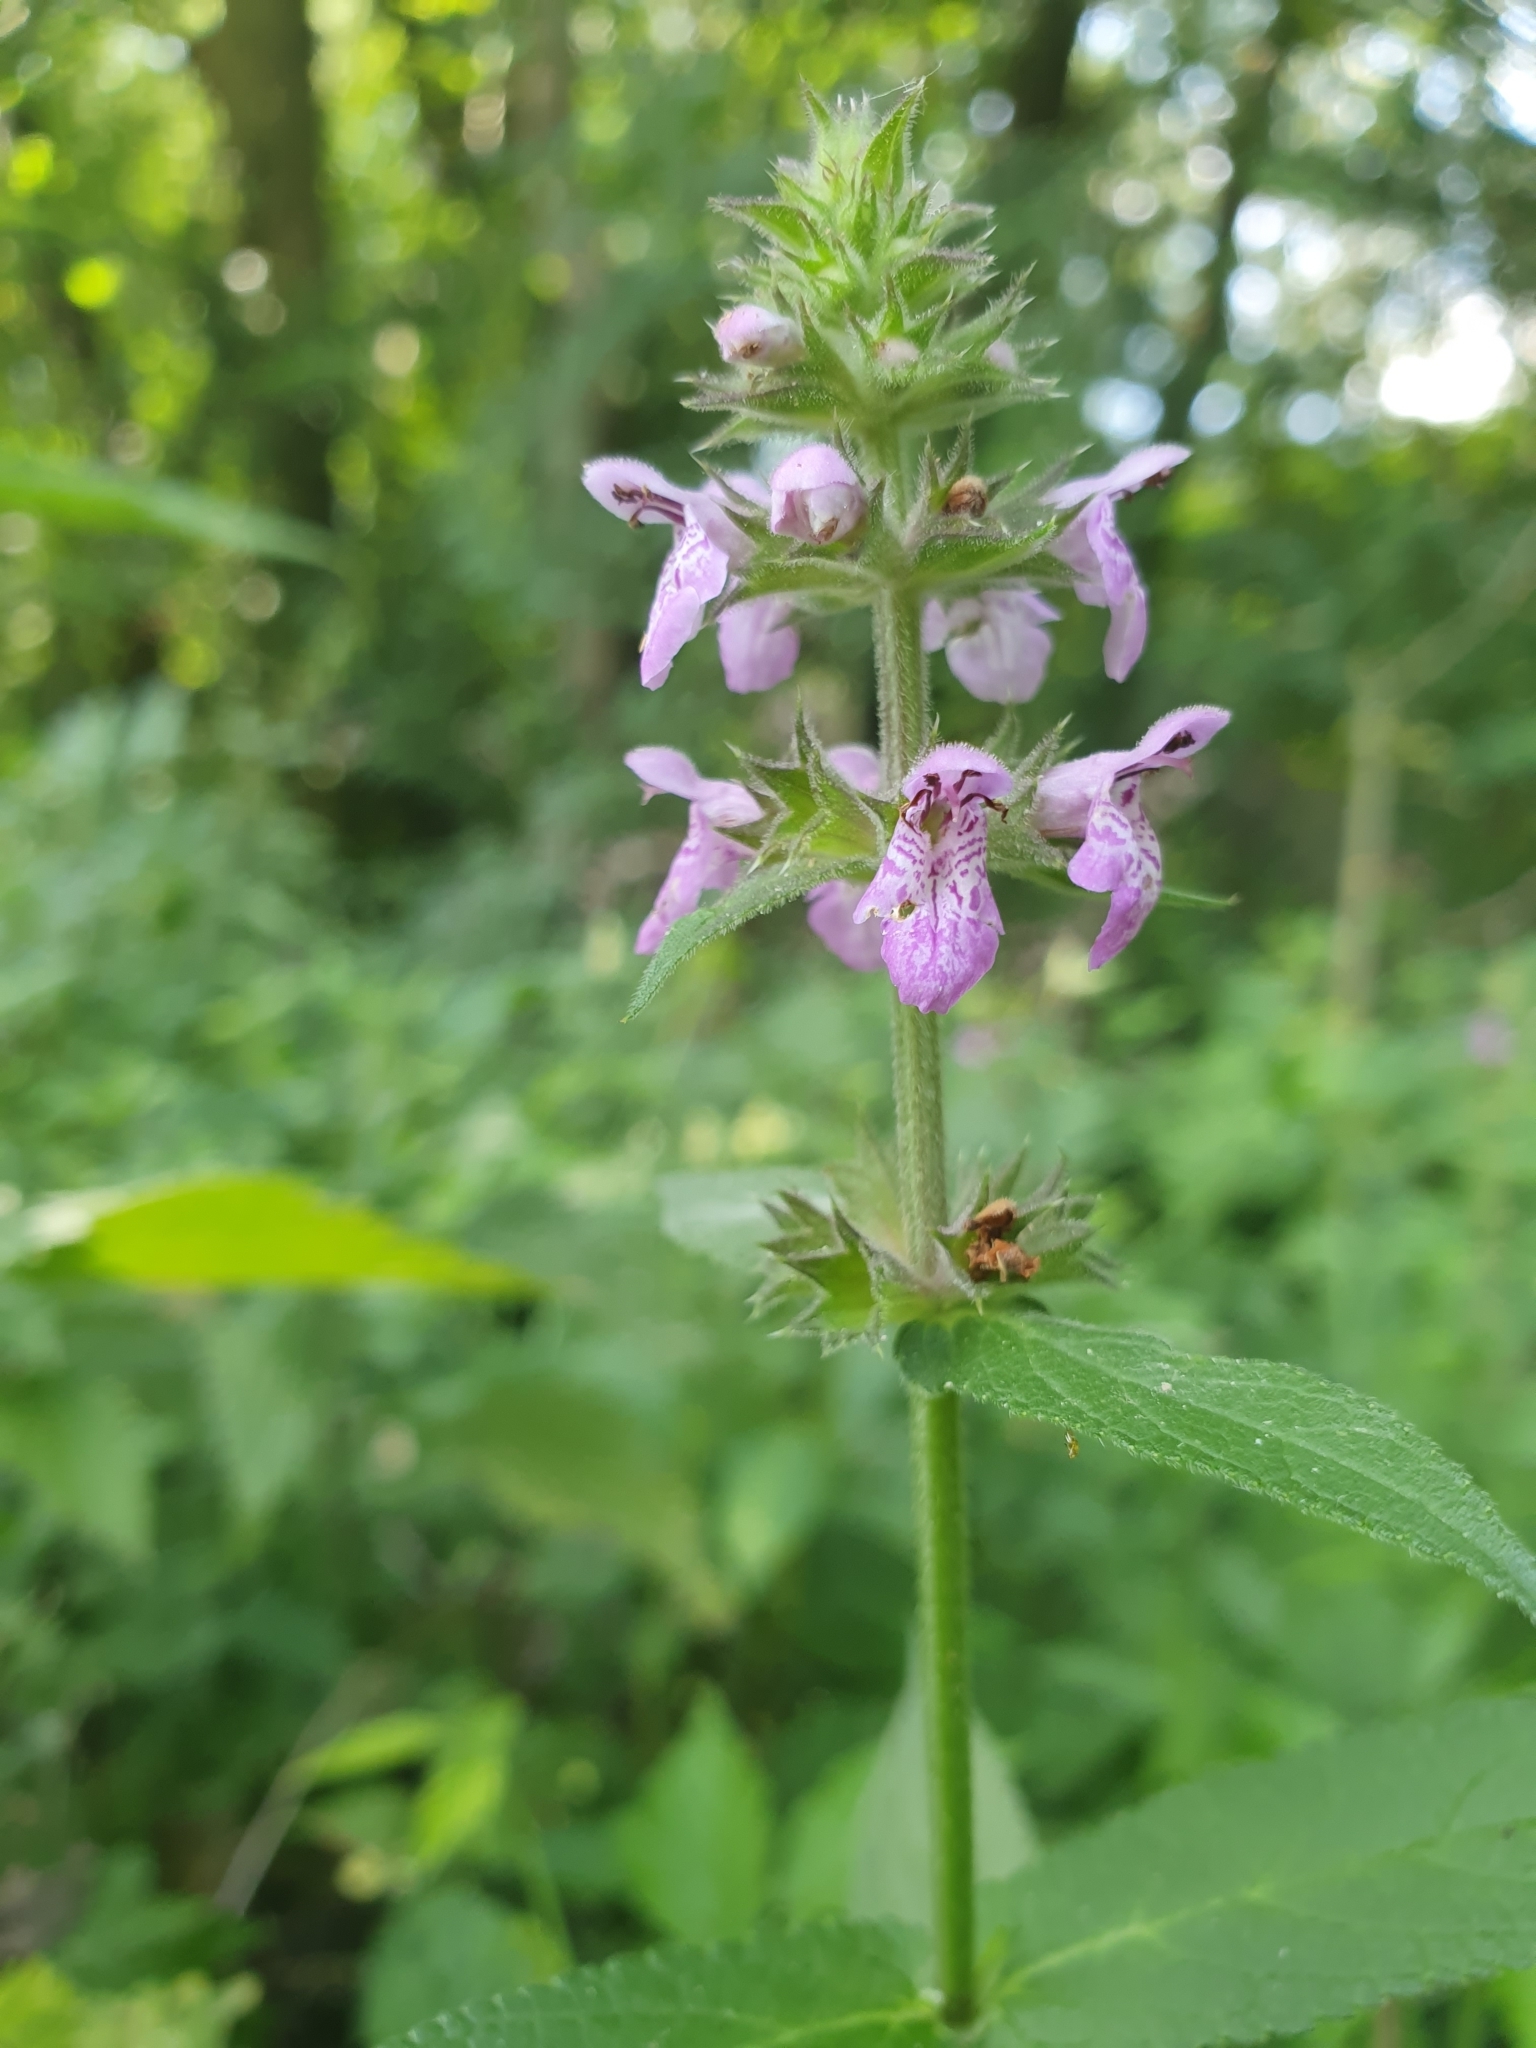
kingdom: Plantae
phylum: Tracheophyta
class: Magnoliopsida
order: Lamiales
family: Lamiaceae
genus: Stachys
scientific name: Stachys palustris
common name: Marsh woundwort
